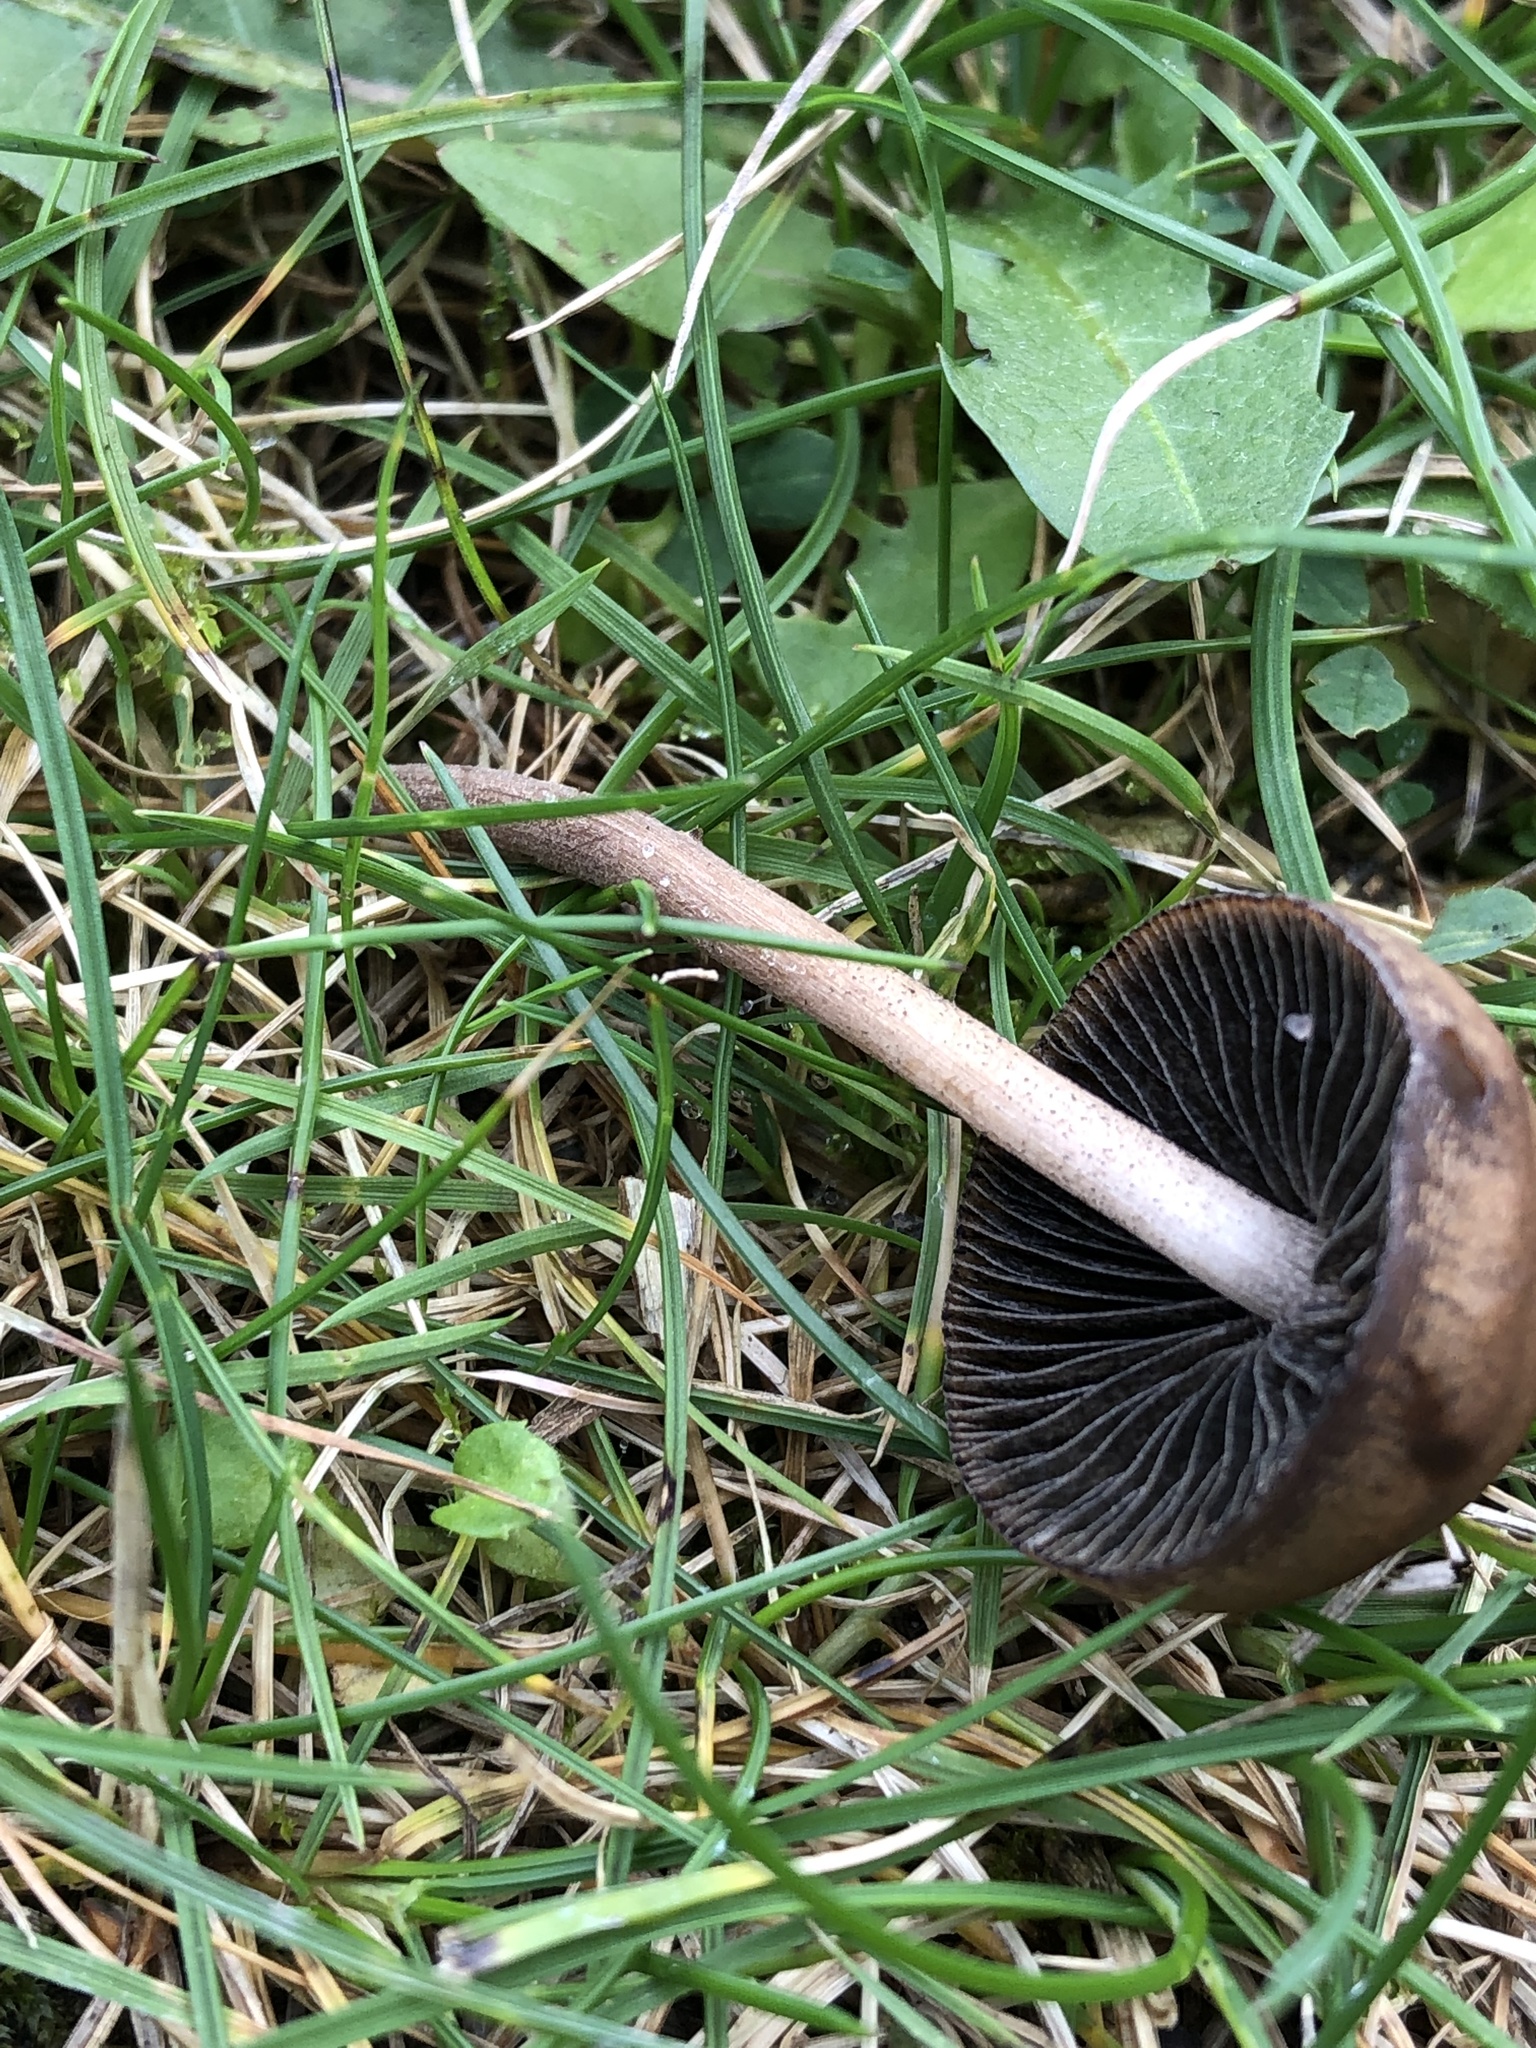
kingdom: Fungi
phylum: Basidiomycota
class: Agaricomycetes
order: Agaricales
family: Bolbitiaceae
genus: Panaeolina
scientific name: Panaeolina foenisecii
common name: Brown hay cap
